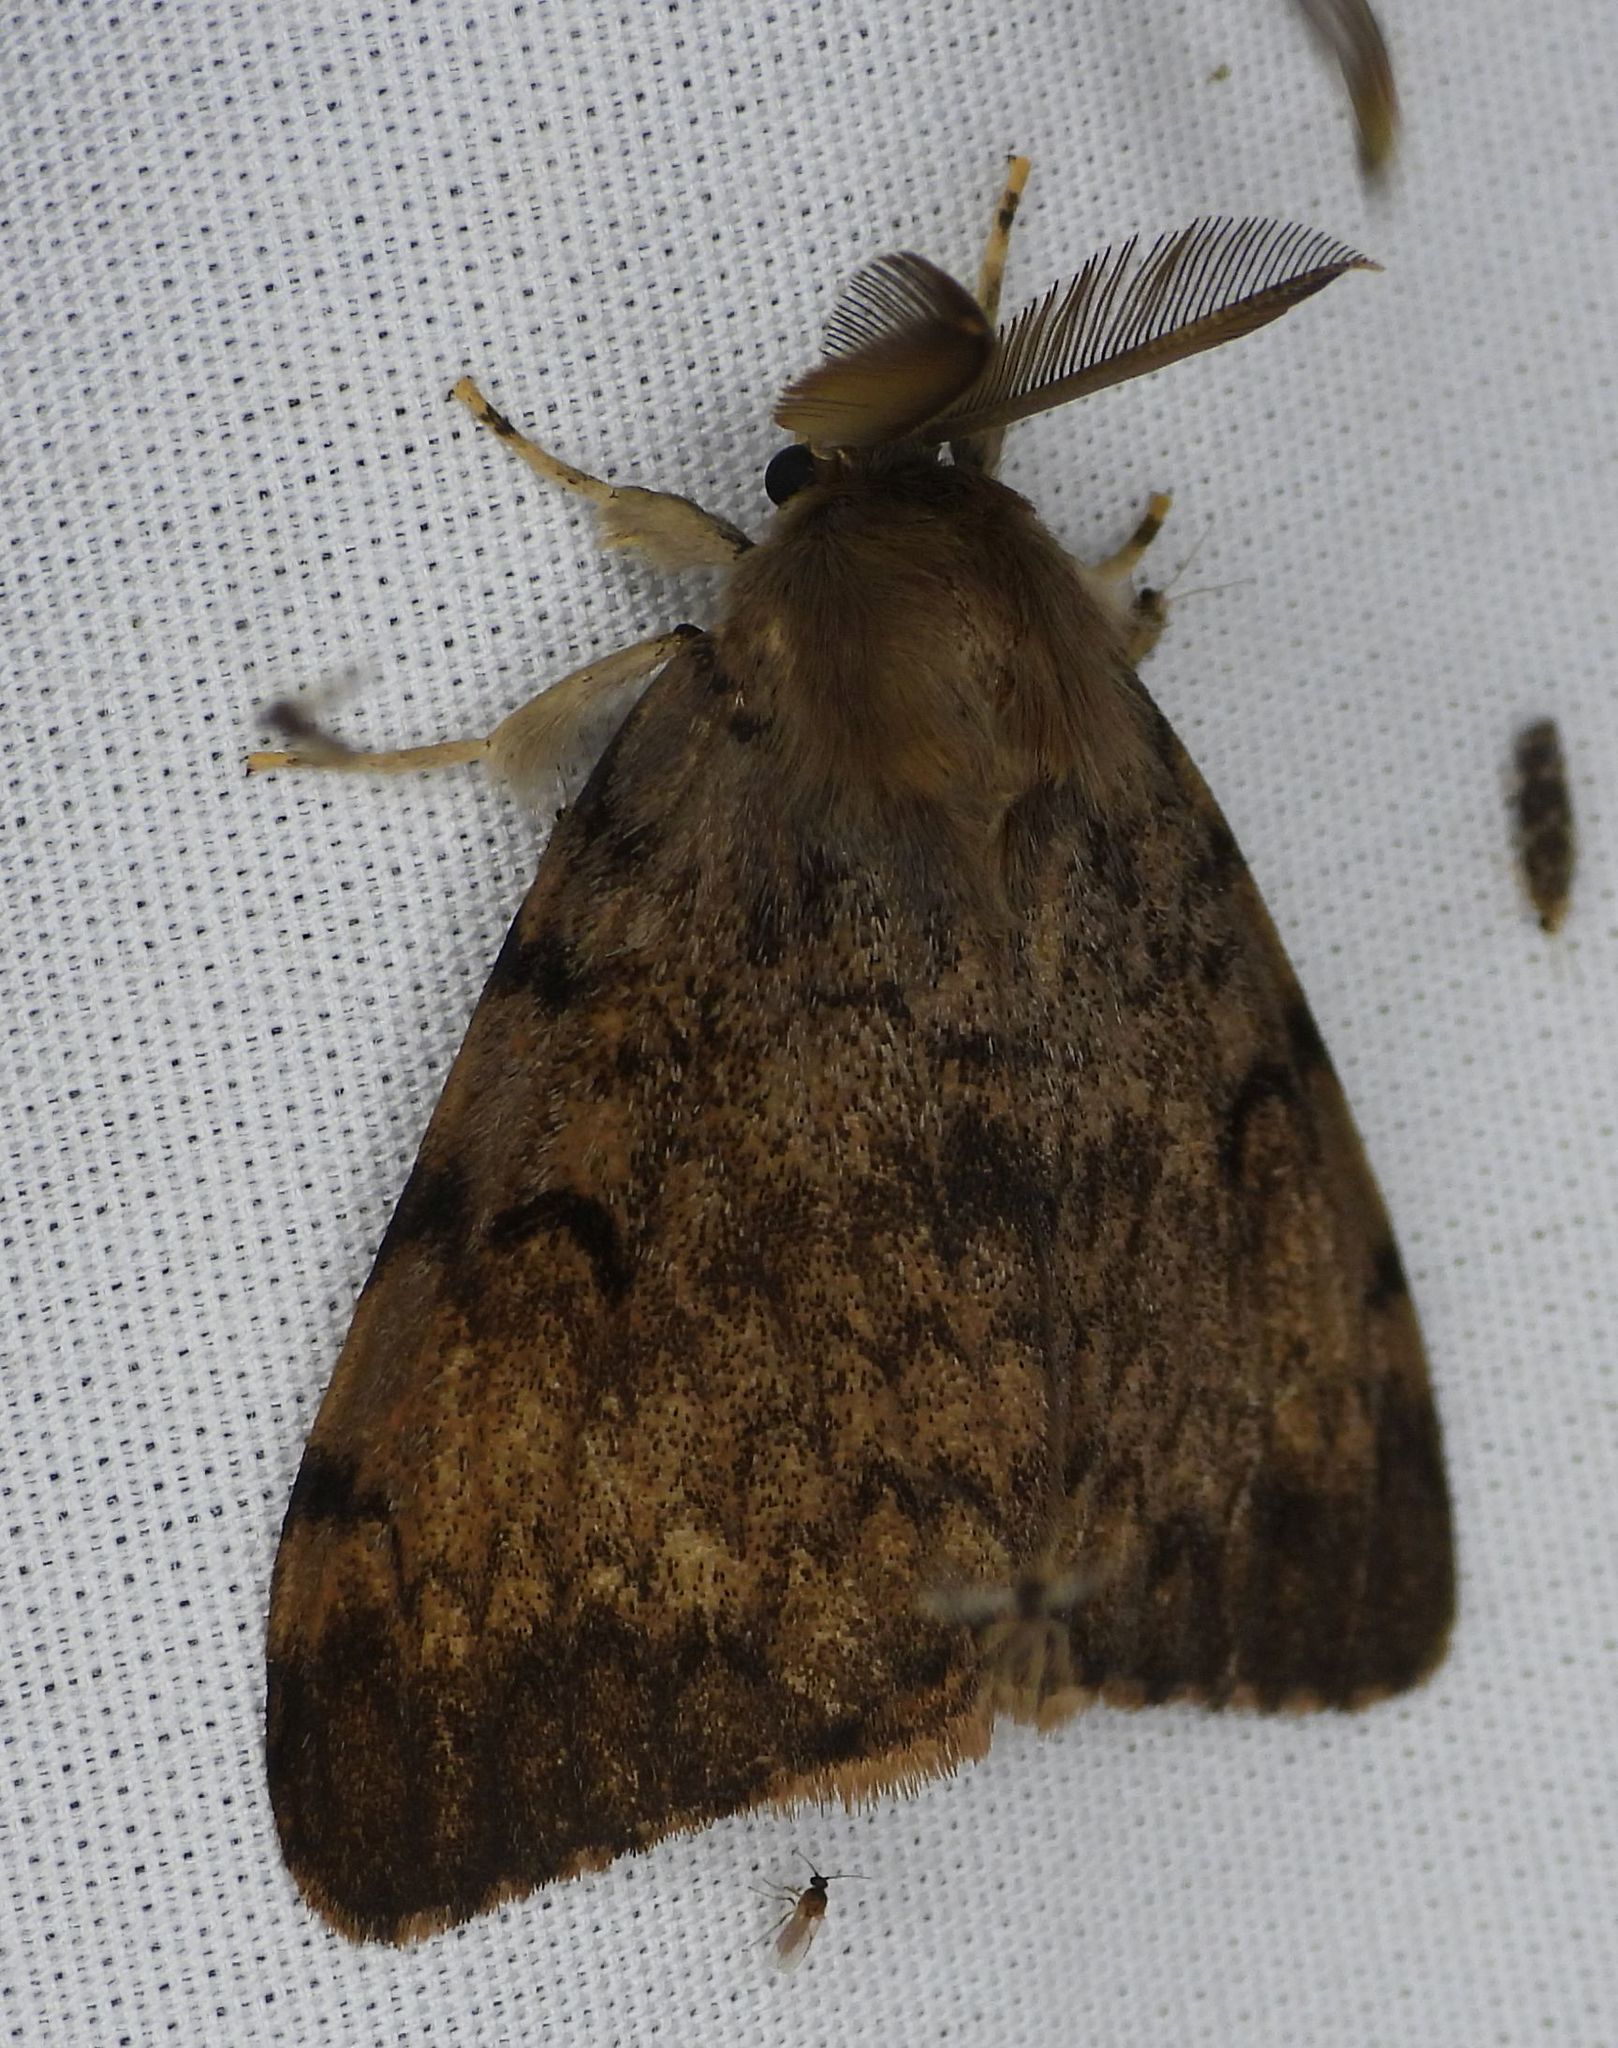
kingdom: Animalia
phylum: Arthropoda
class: Insecta
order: Lepidoptera
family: Erebidae
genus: Lymantria
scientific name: Lymantria dispar
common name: Gypsy moth
